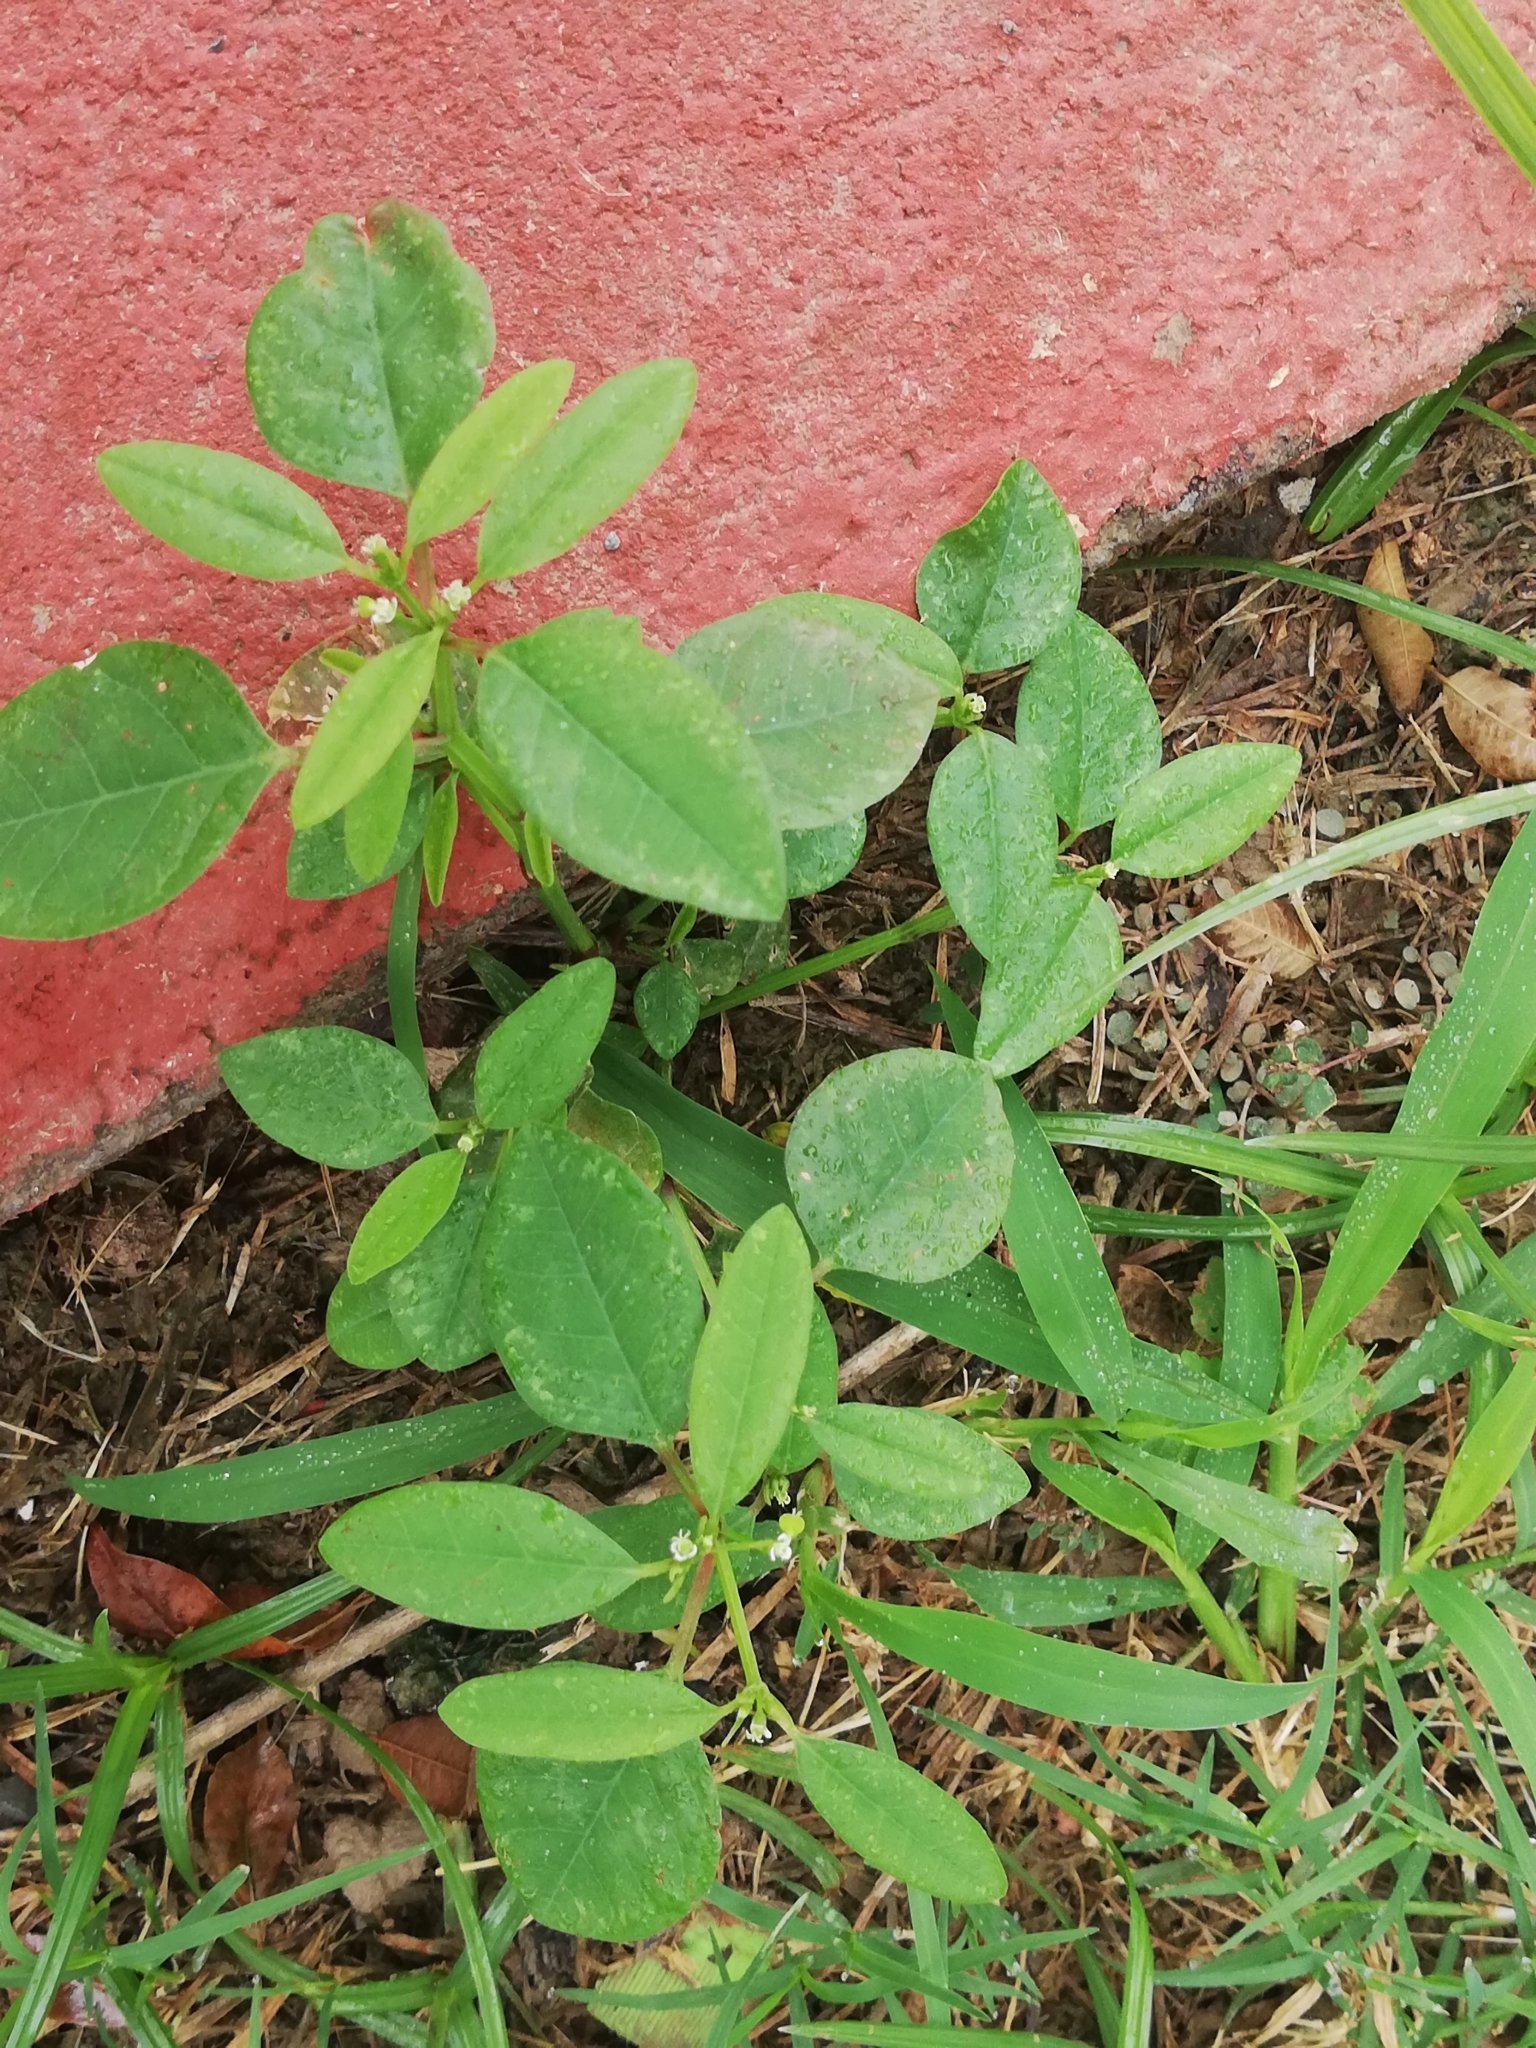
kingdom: Plantae
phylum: Tracheophyta
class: Magnoliopsida
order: Malpighiales
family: Euphorbiaceae
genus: Euphorbia
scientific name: Euphorbia graminea
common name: Grassleaf spurge
